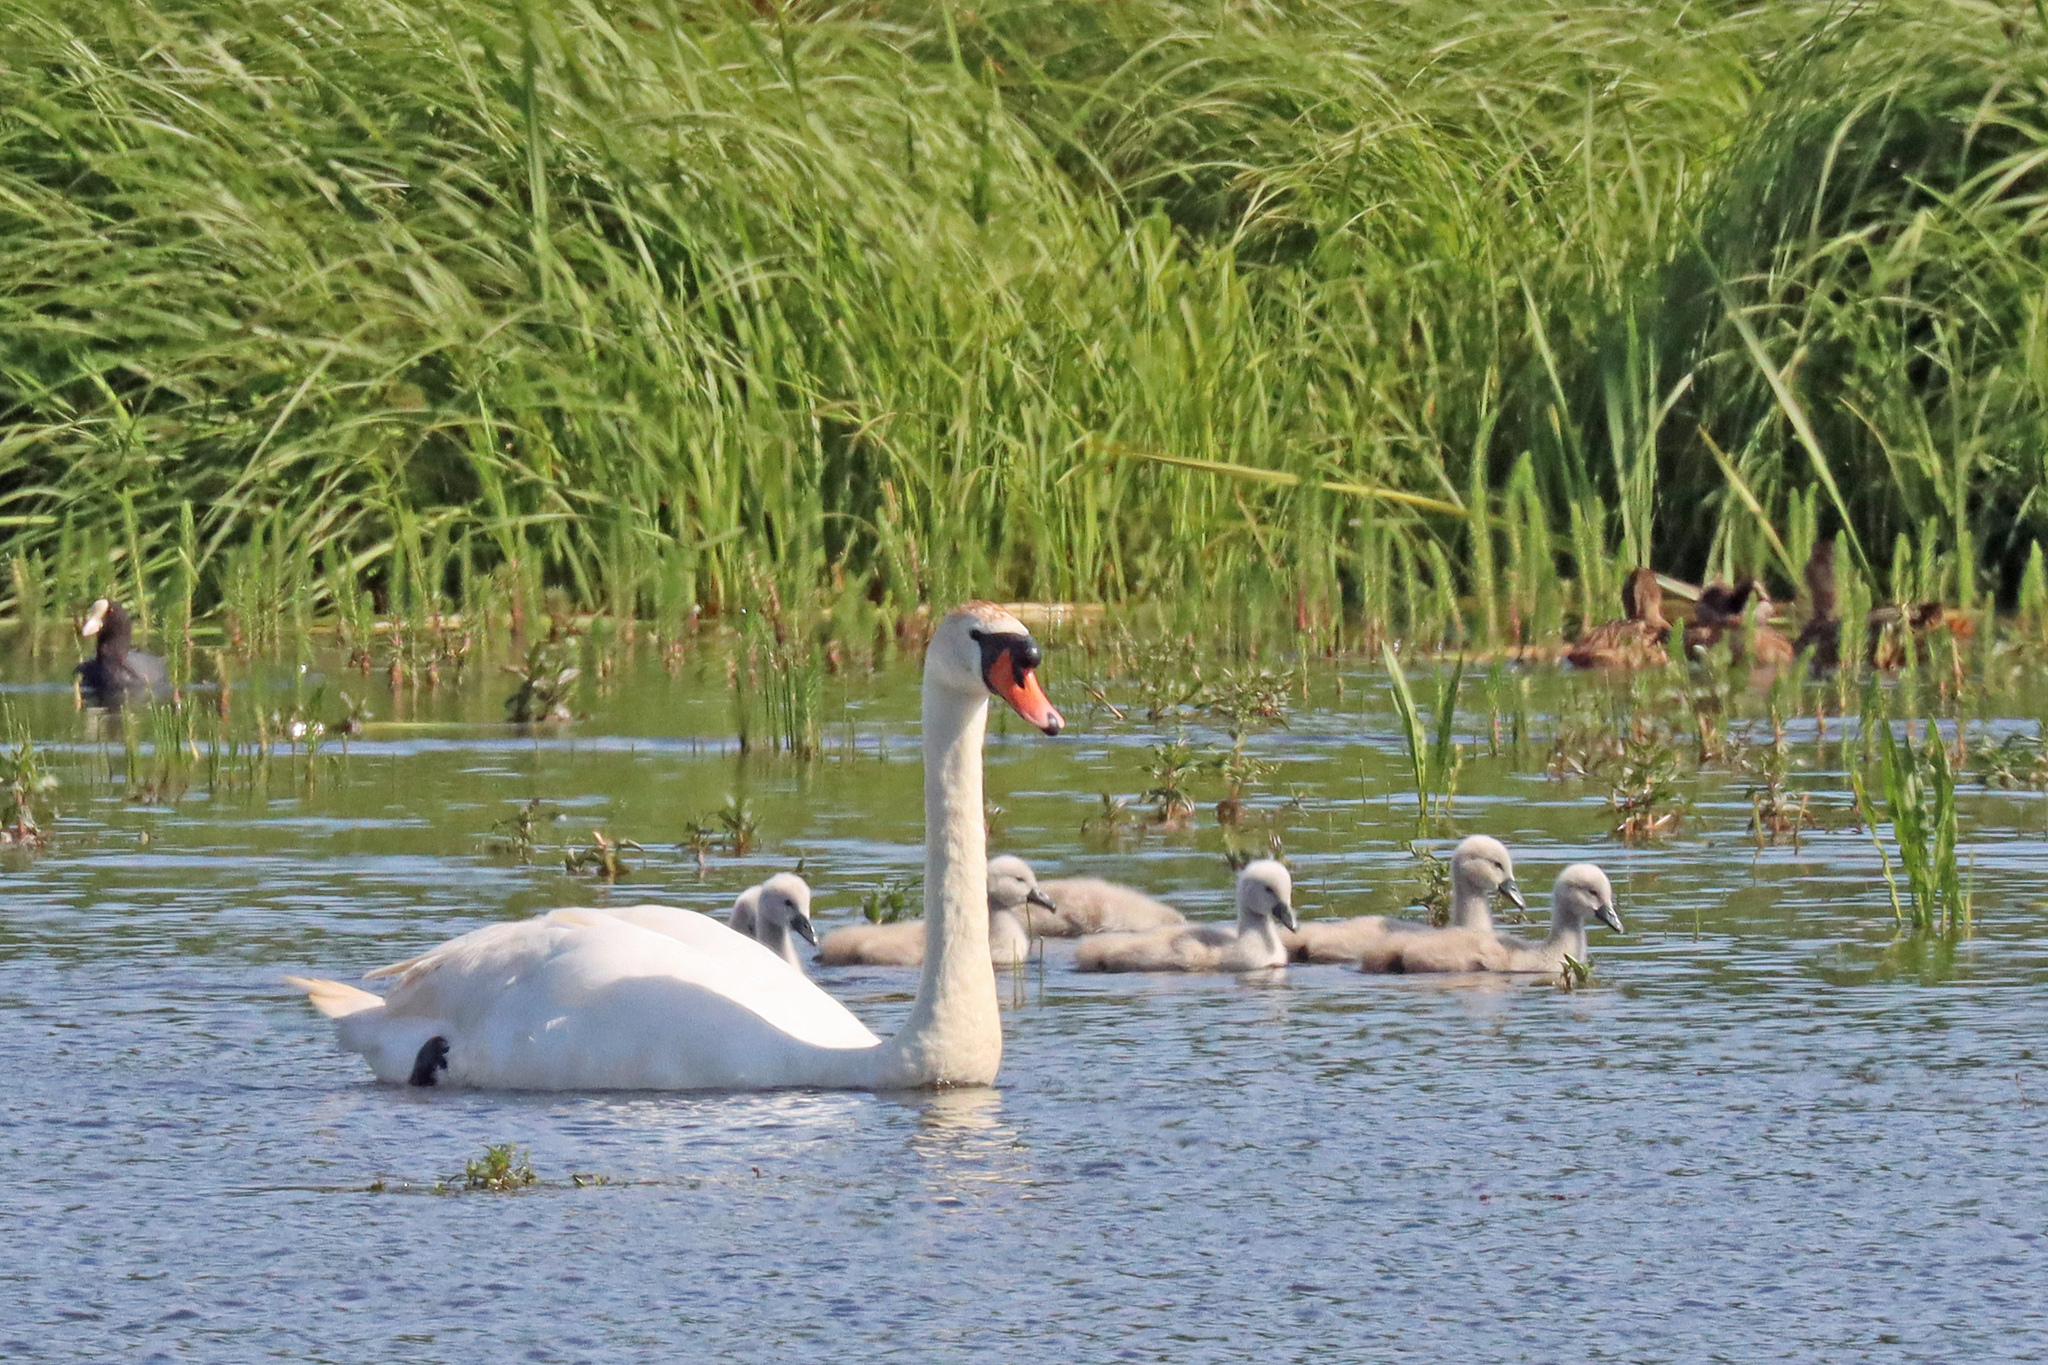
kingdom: Animalia
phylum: Chordata
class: Aves
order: Anseriformes
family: Anatidae
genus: Cygnus
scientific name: Cygnus olor
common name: Mute swan
